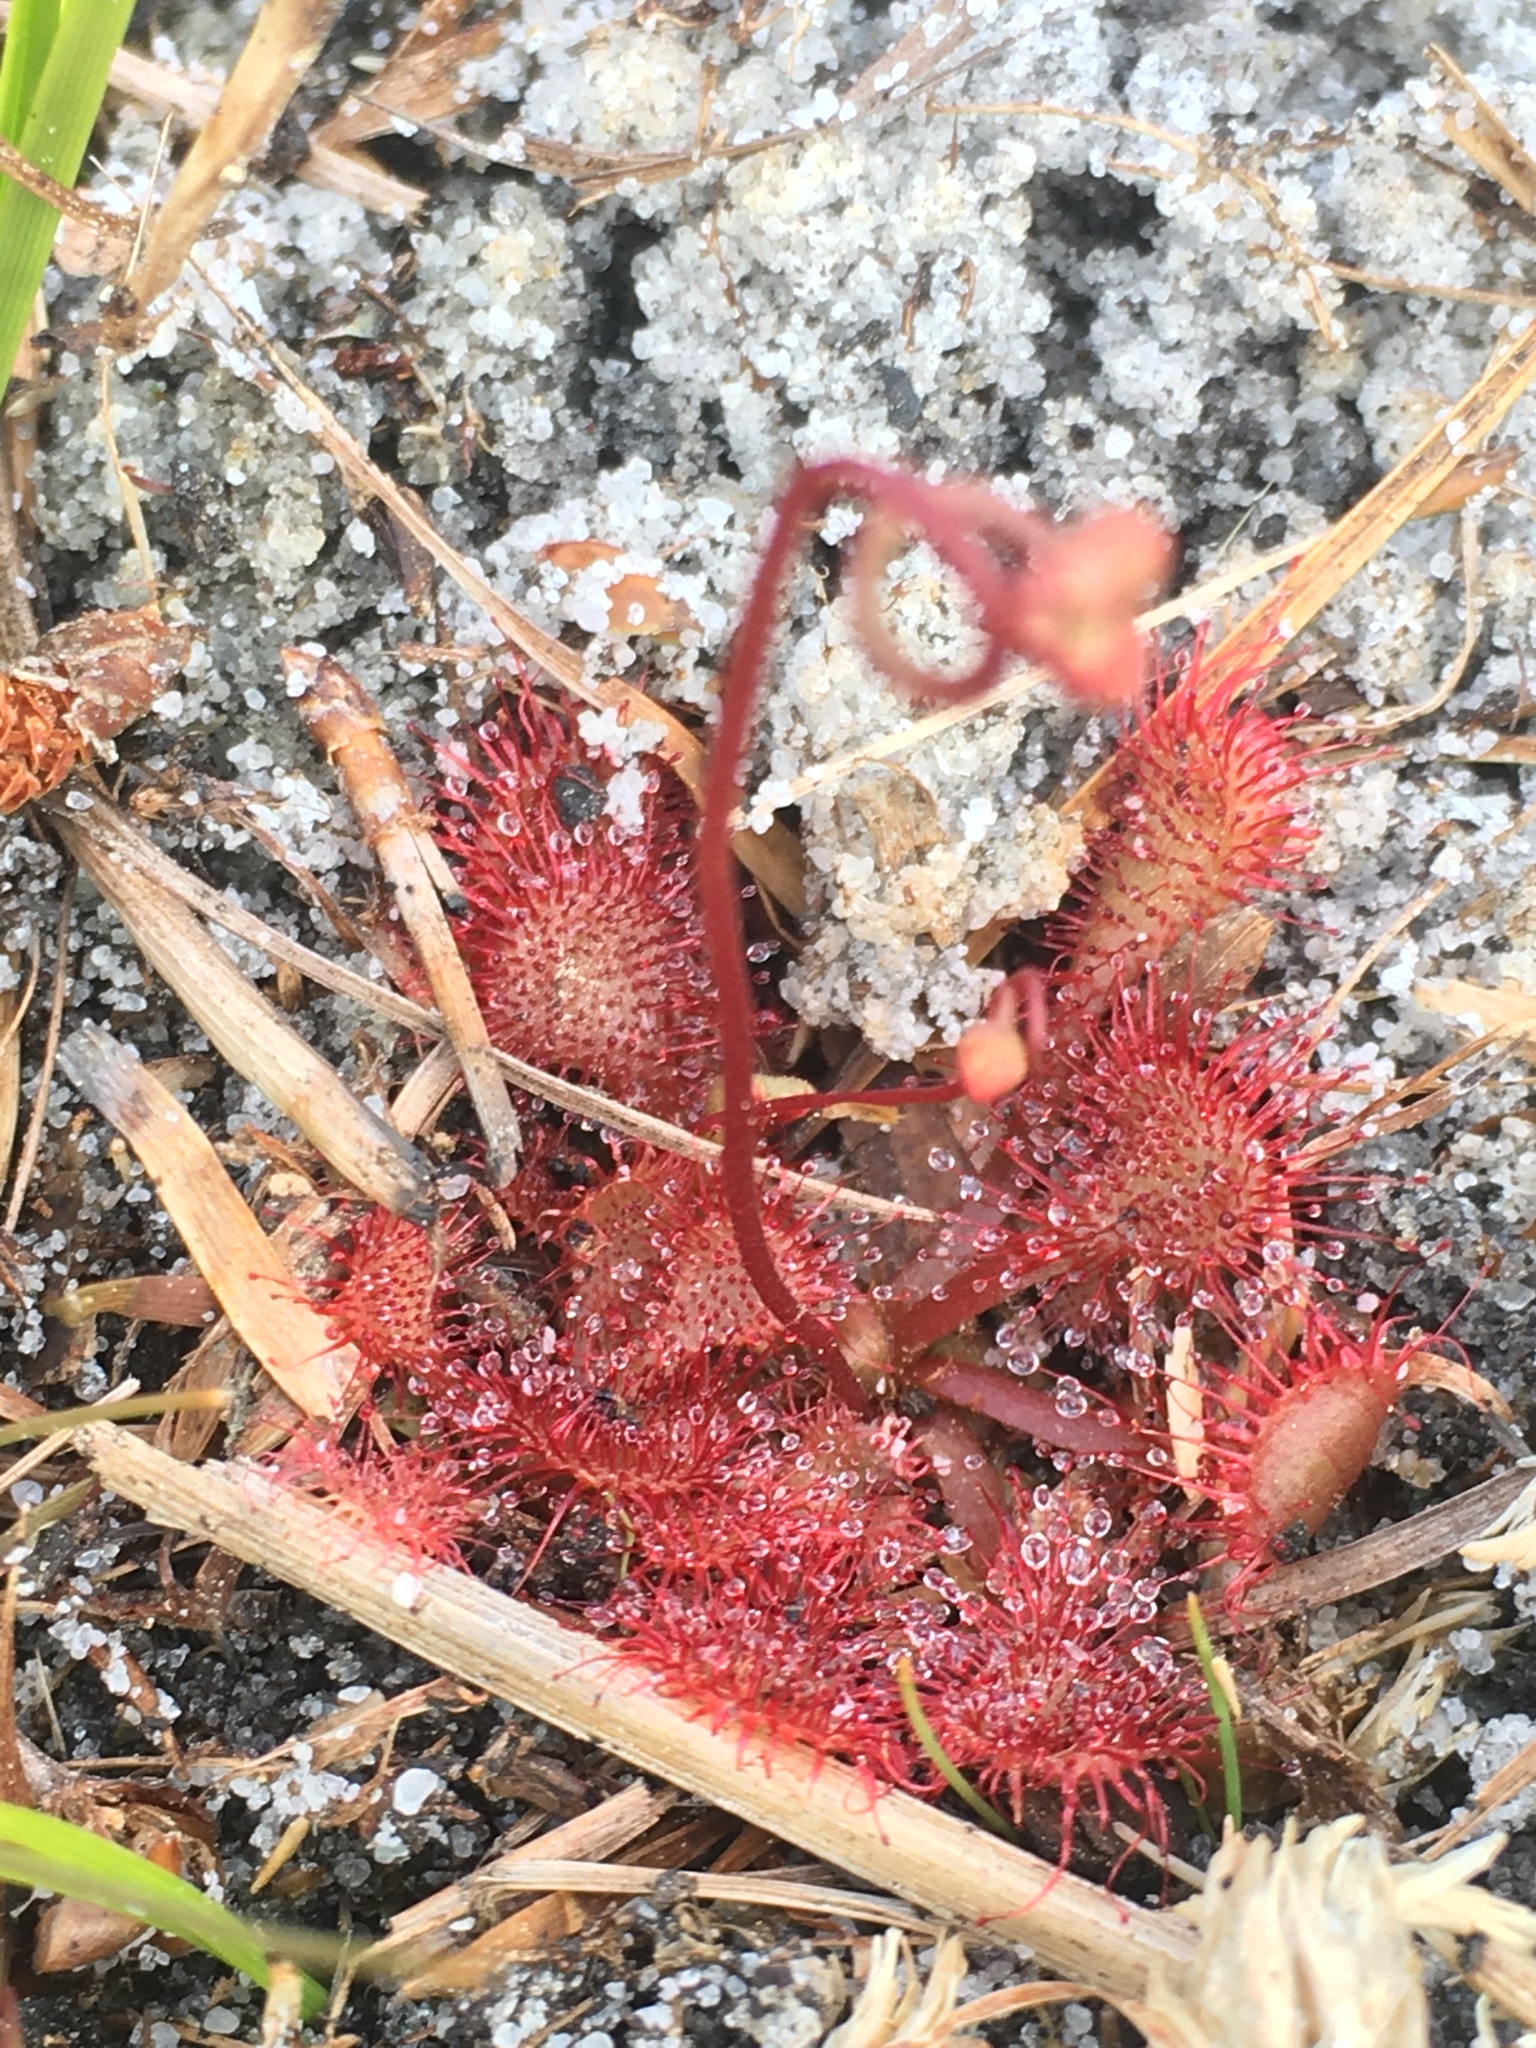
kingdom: Plantae
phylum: Tracheophyta
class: Magnoliopsida
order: Caryophyllales
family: Droseraceae
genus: Drosera
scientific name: Drosera capillaris
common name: Pink sundew
